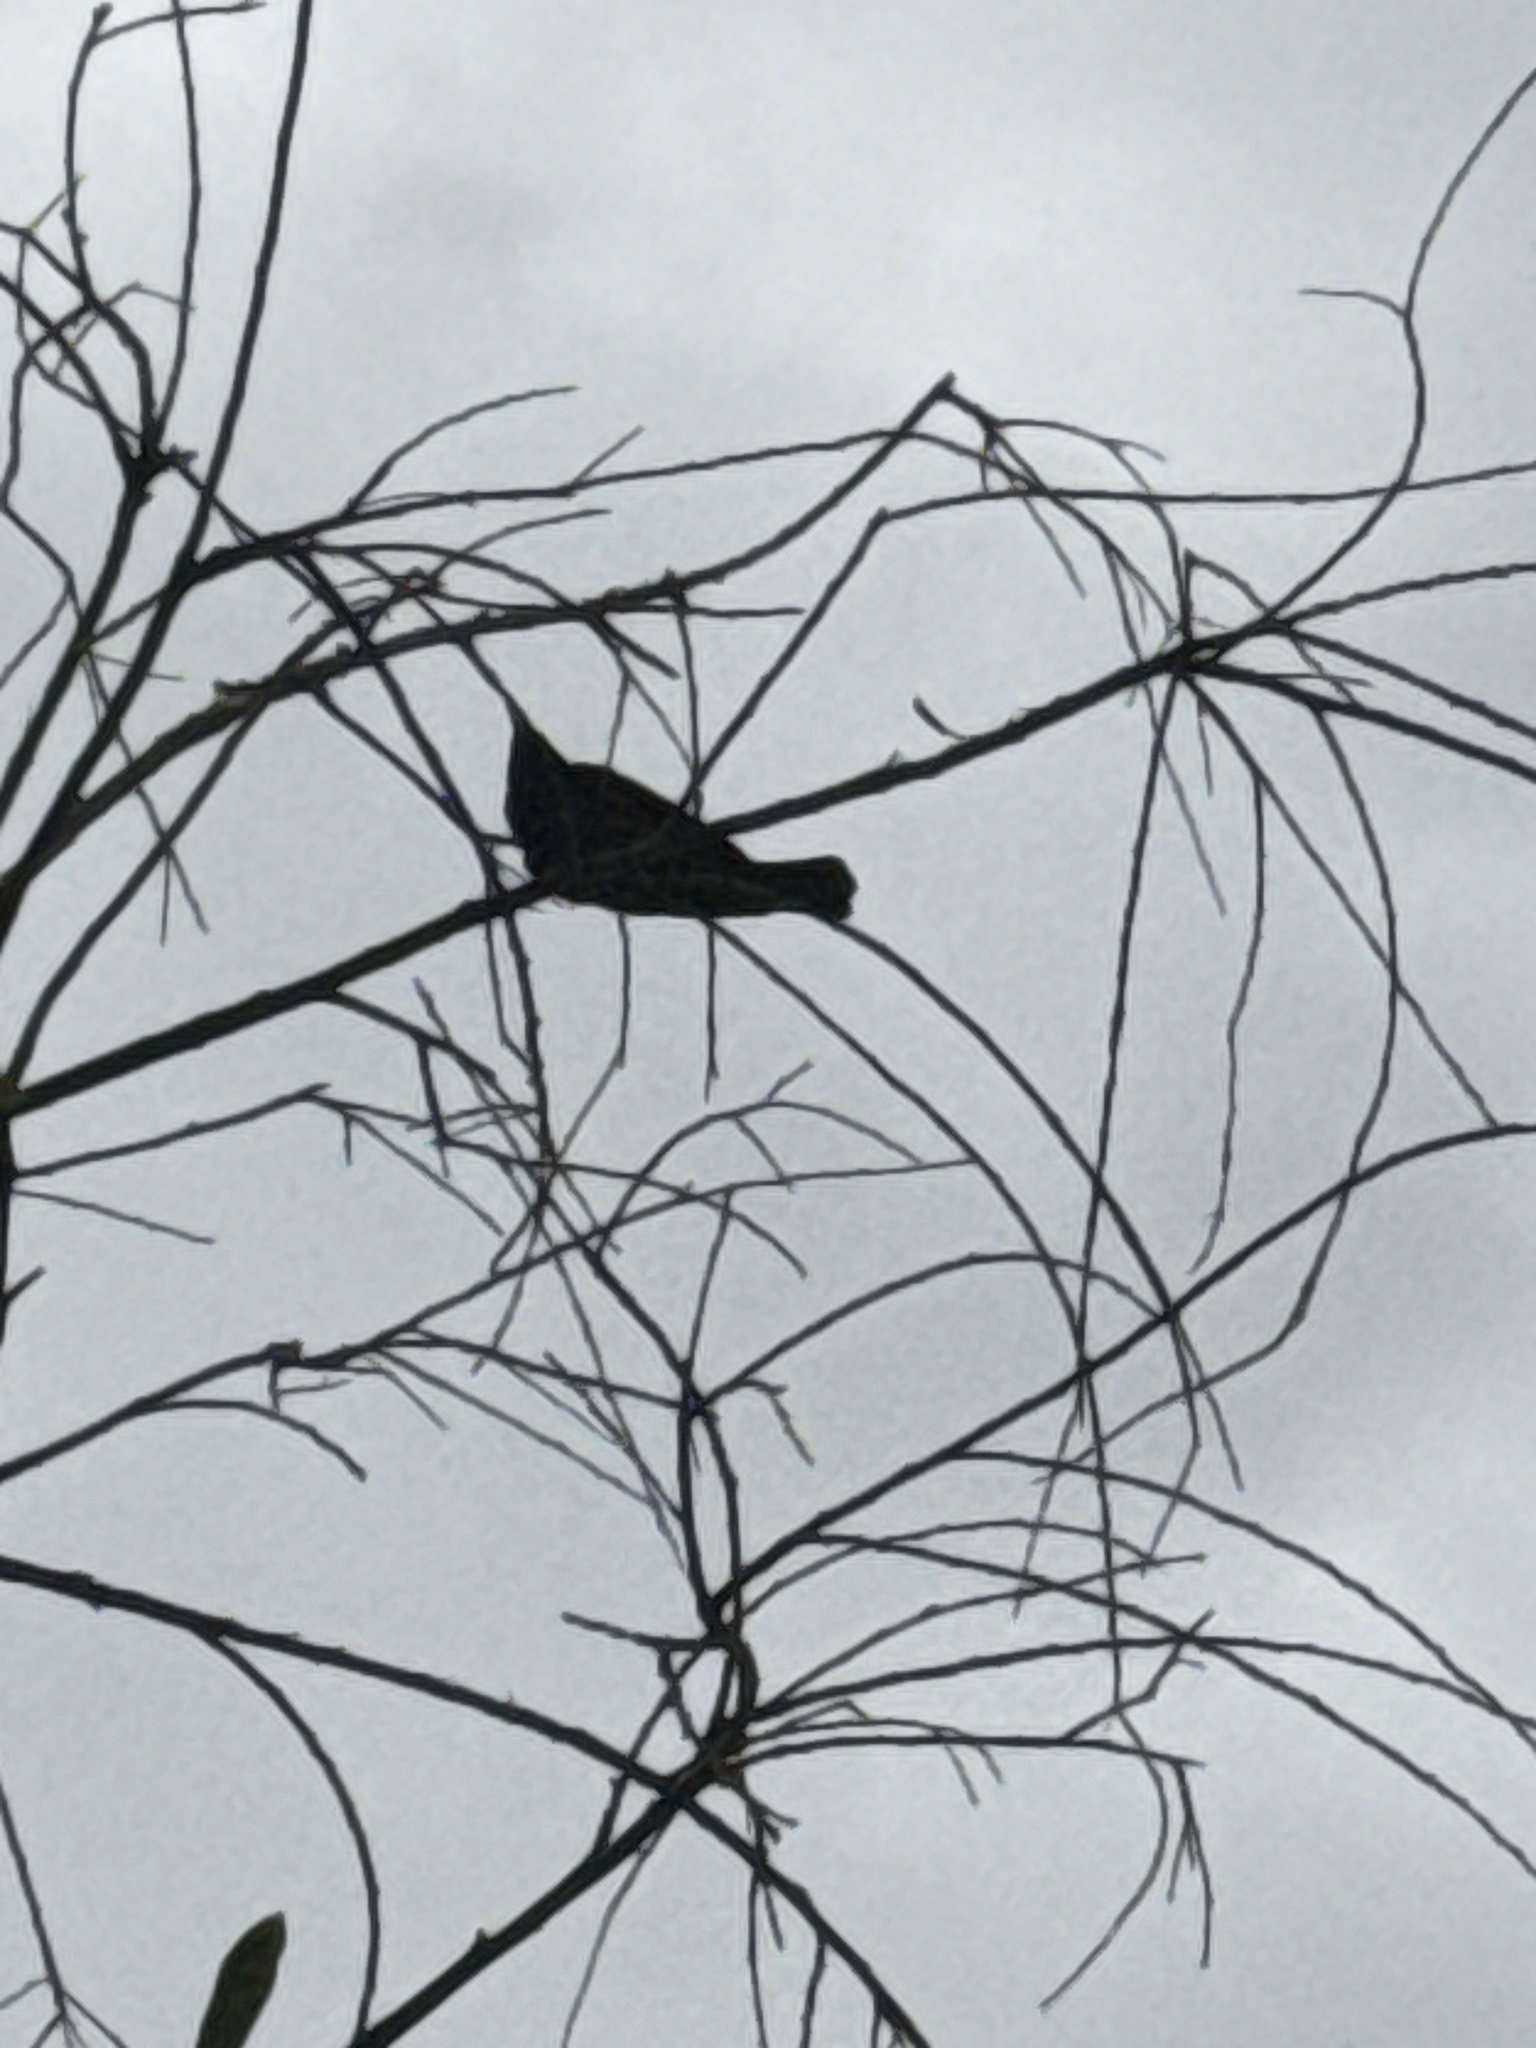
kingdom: Animalia
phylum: Chordata
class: Aves
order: Passeriformes
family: Icteridae
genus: Agelaius
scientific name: Agelaius phoeniceus
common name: Red-winged blackbird
